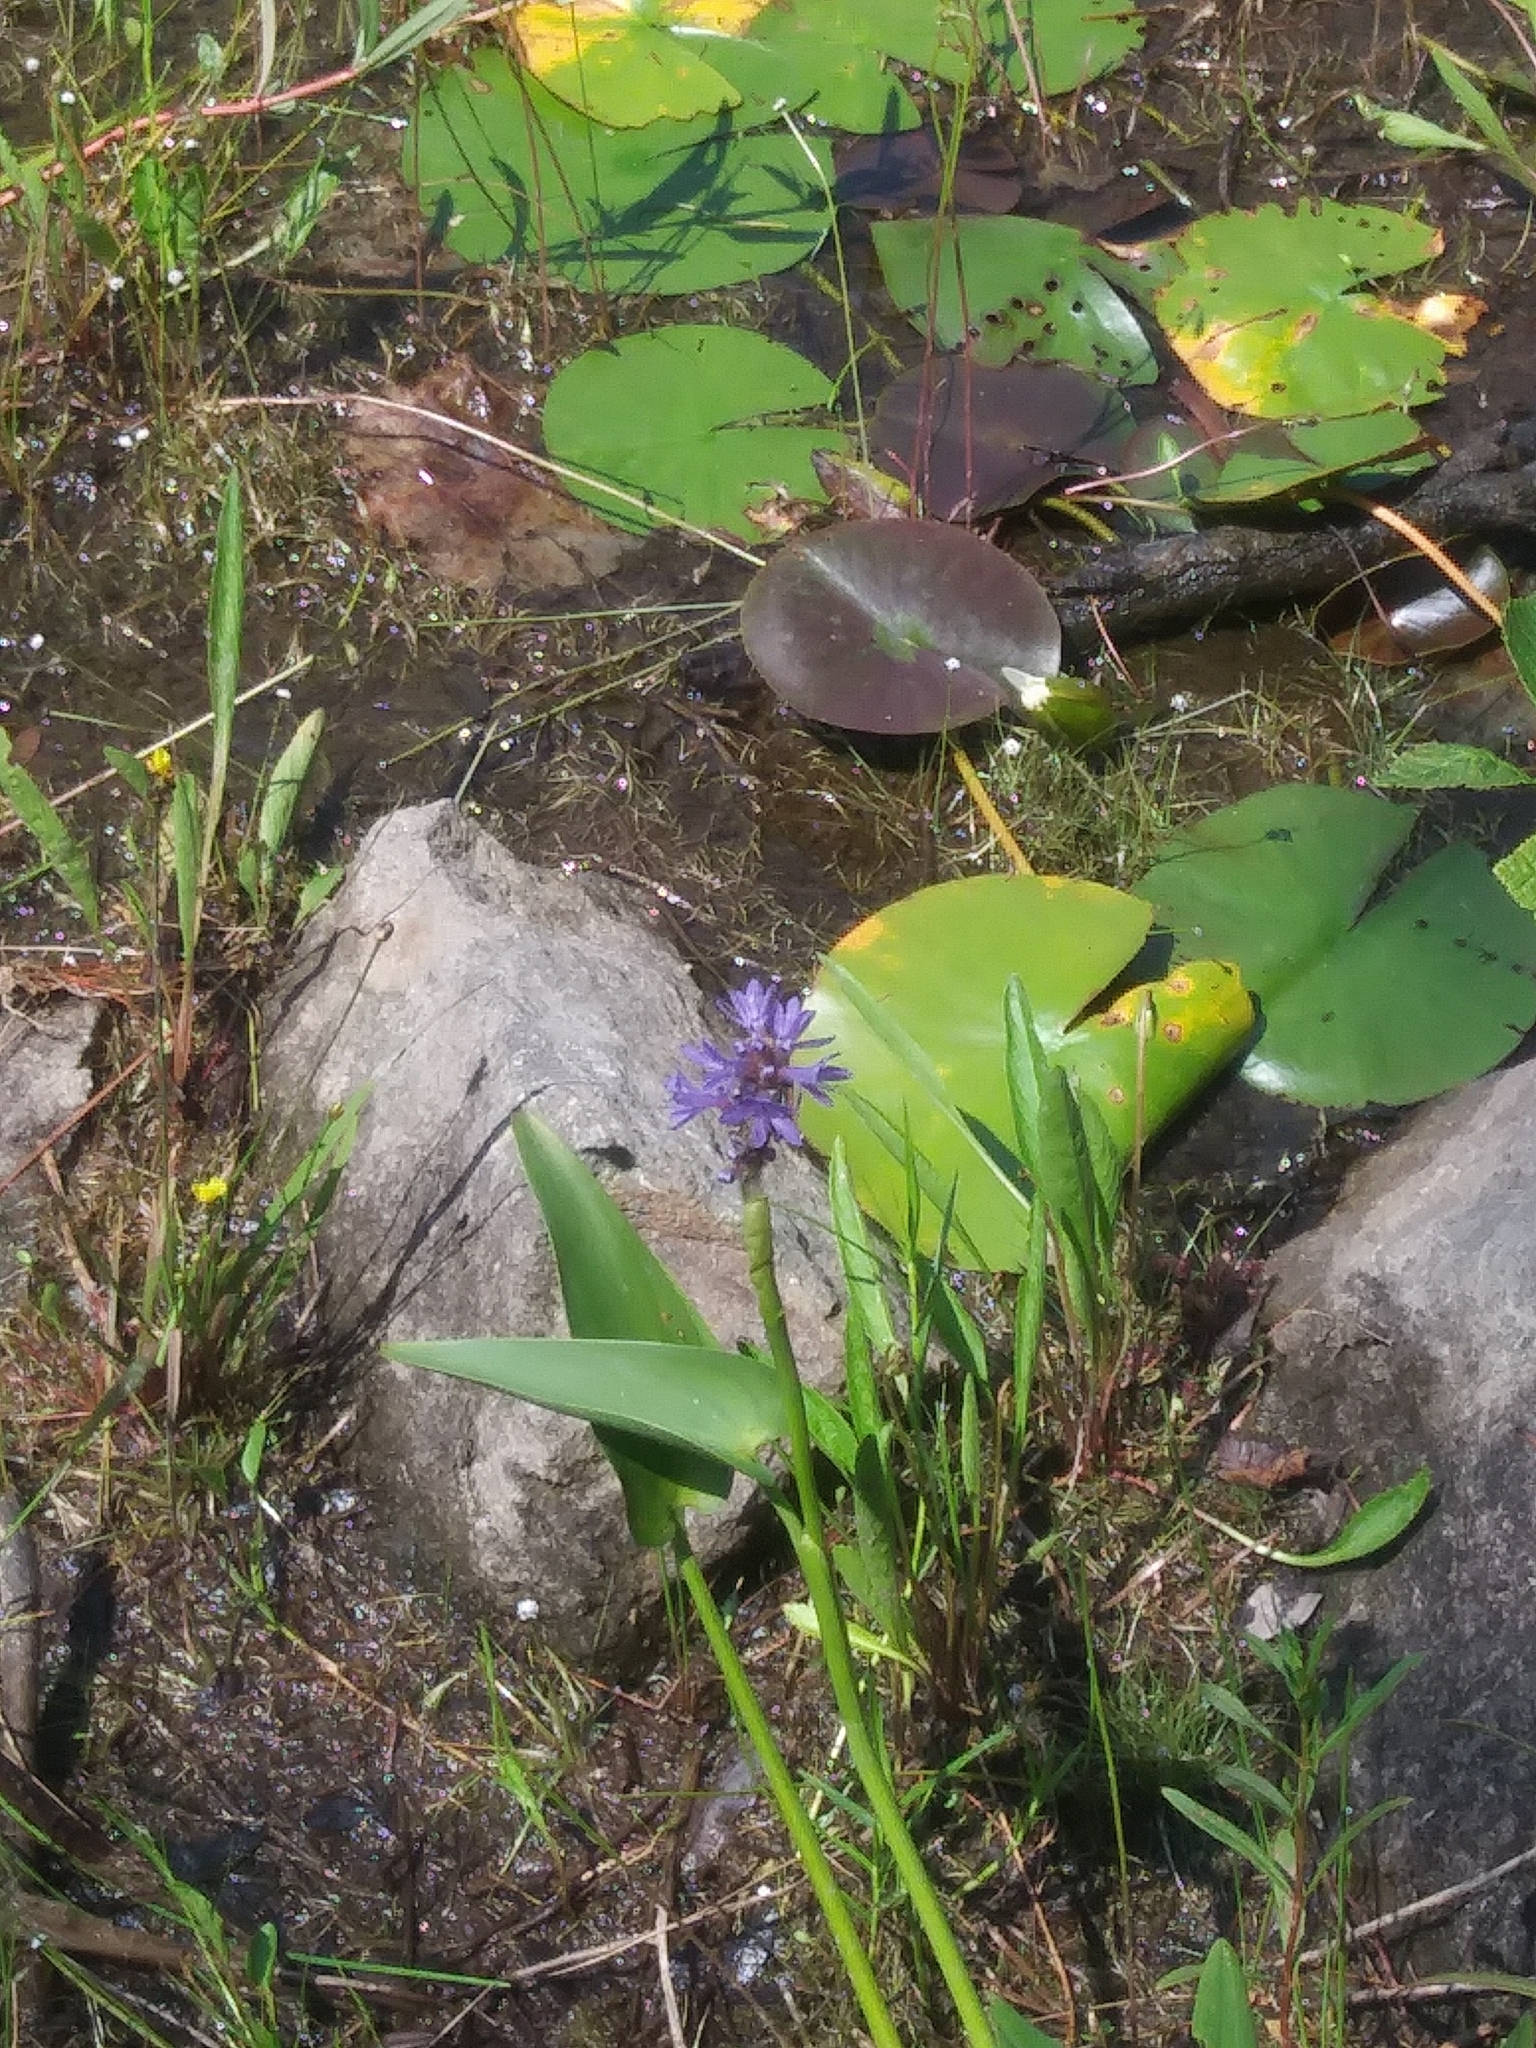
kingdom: Plantae
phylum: Tracheophyta
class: Liliopsida
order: Commelinales
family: Pontederiaceae
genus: Pontederia
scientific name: Pontederia cordata
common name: Pickerelweed
